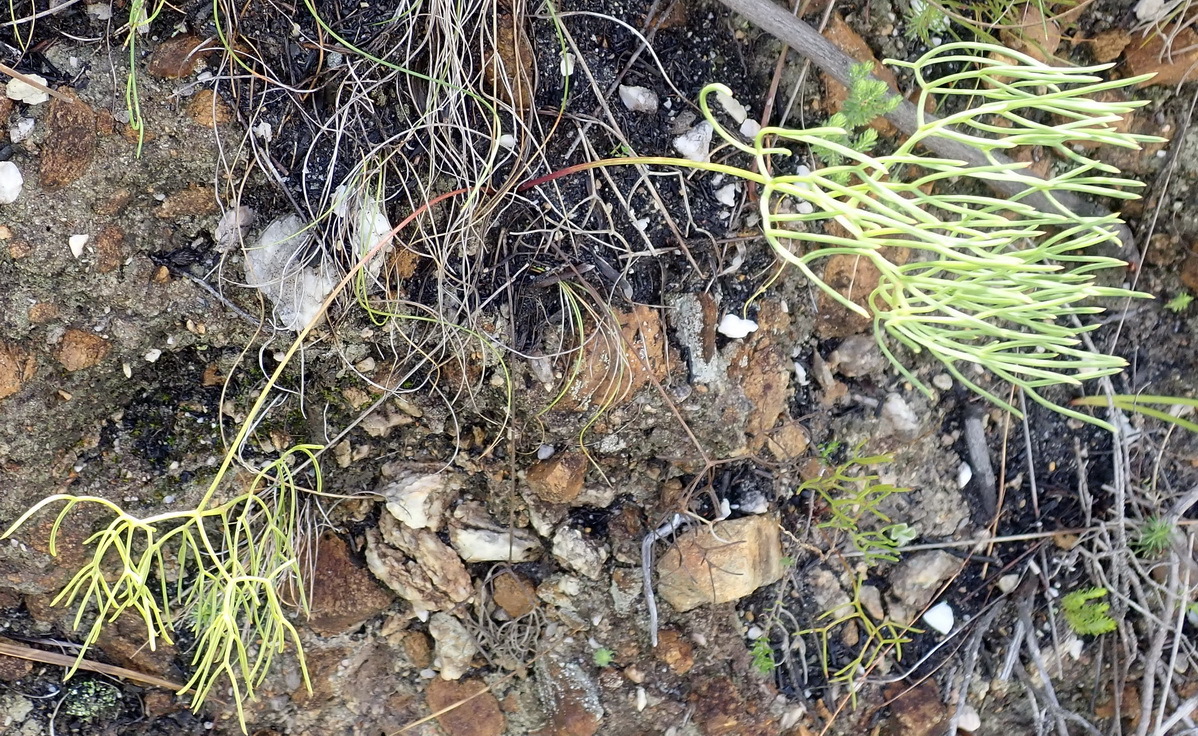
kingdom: Plantae
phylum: Tracheophyta
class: Magnoliopsida
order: Apiales
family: Apiaceae
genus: Nanobubon
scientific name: Nanobubon capillaceum
